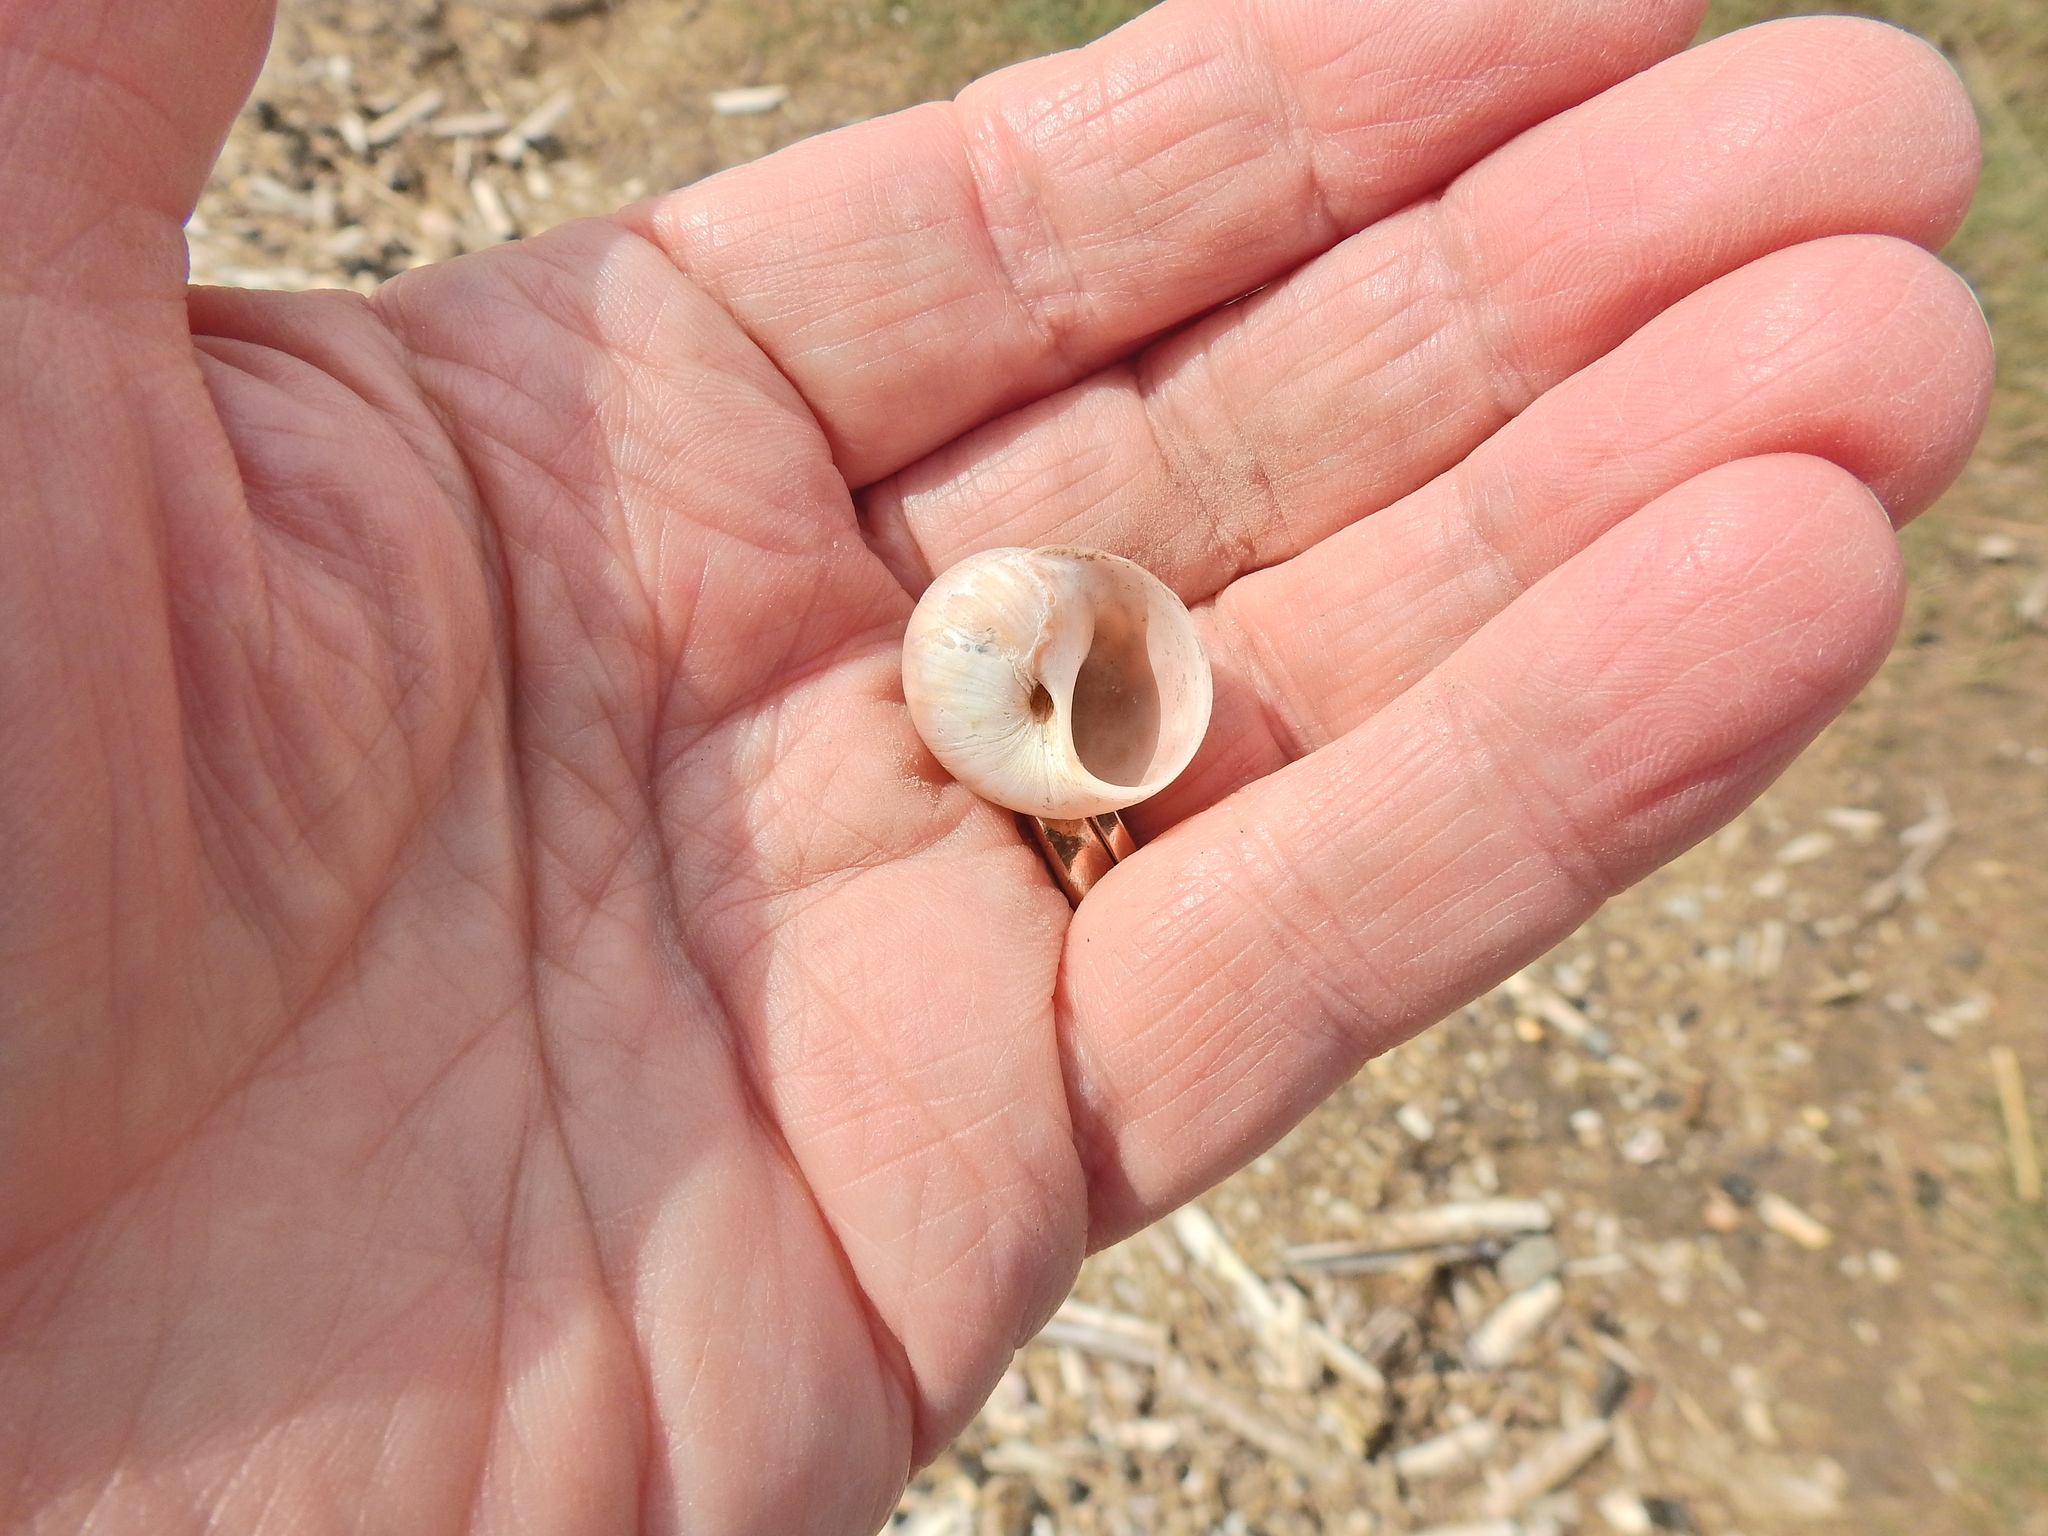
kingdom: Animalia
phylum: Mollusca
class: Gastropoda
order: Littorinimorpha
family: Naticidae
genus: Euspira
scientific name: Euspira catena
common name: Necklace shell
